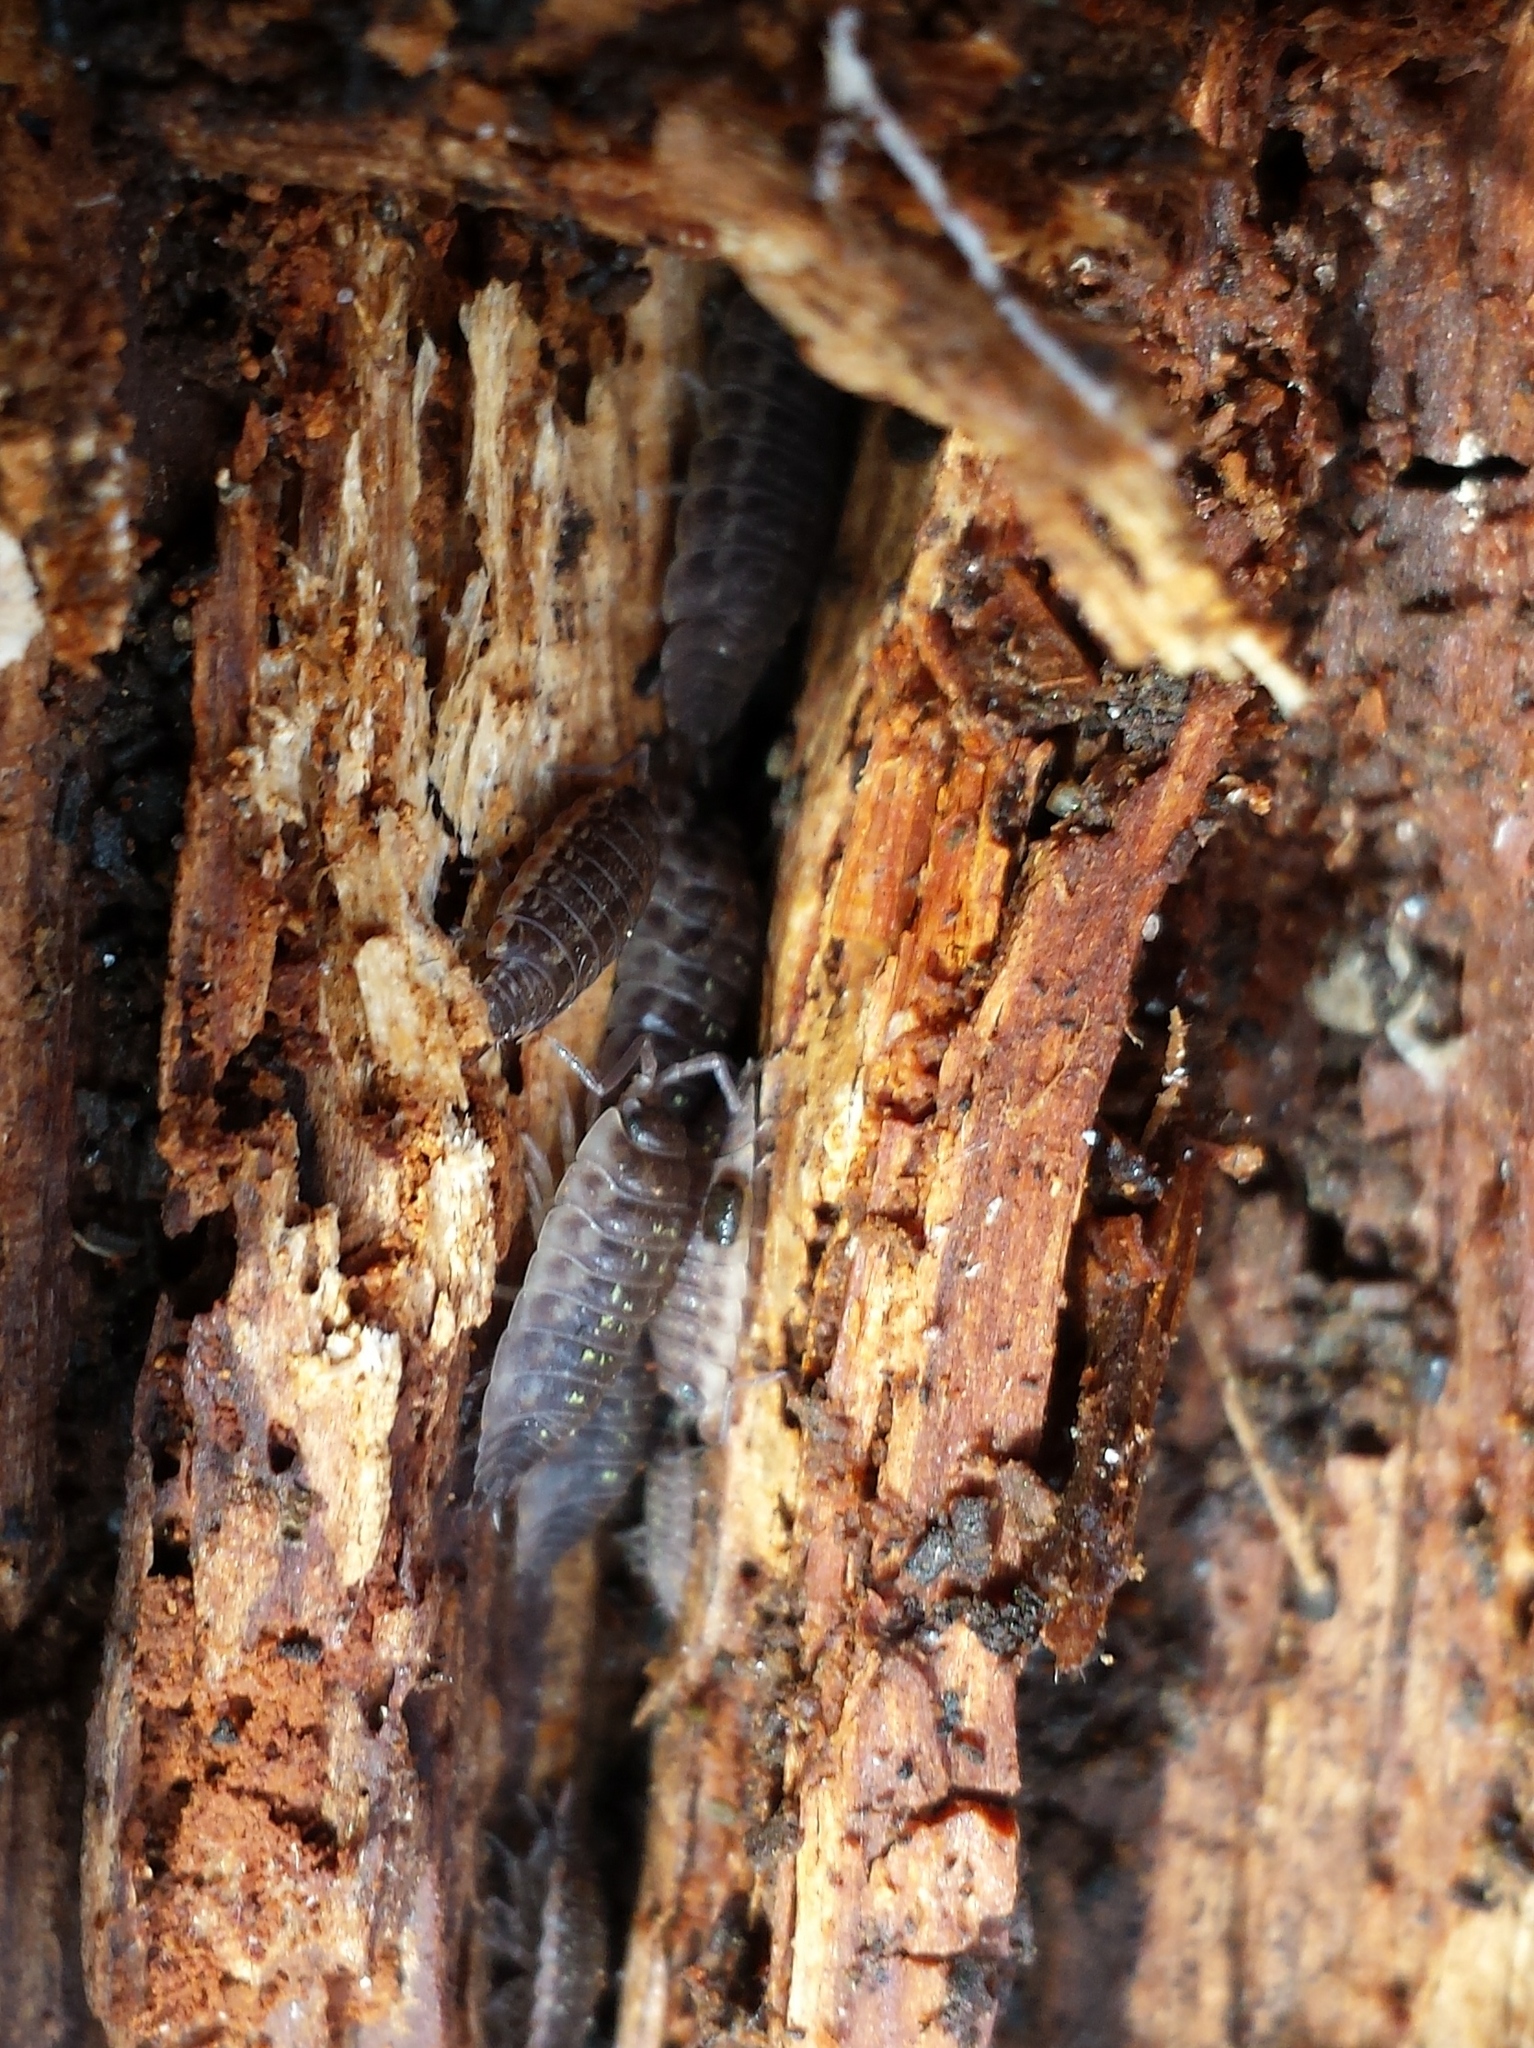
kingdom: Animalia
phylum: Arthropoda
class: Malacostraca
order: Isopoda
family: Oniscidae
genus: Oniscus
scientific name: Oniscus asellus
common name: Common shiny woodlouse
